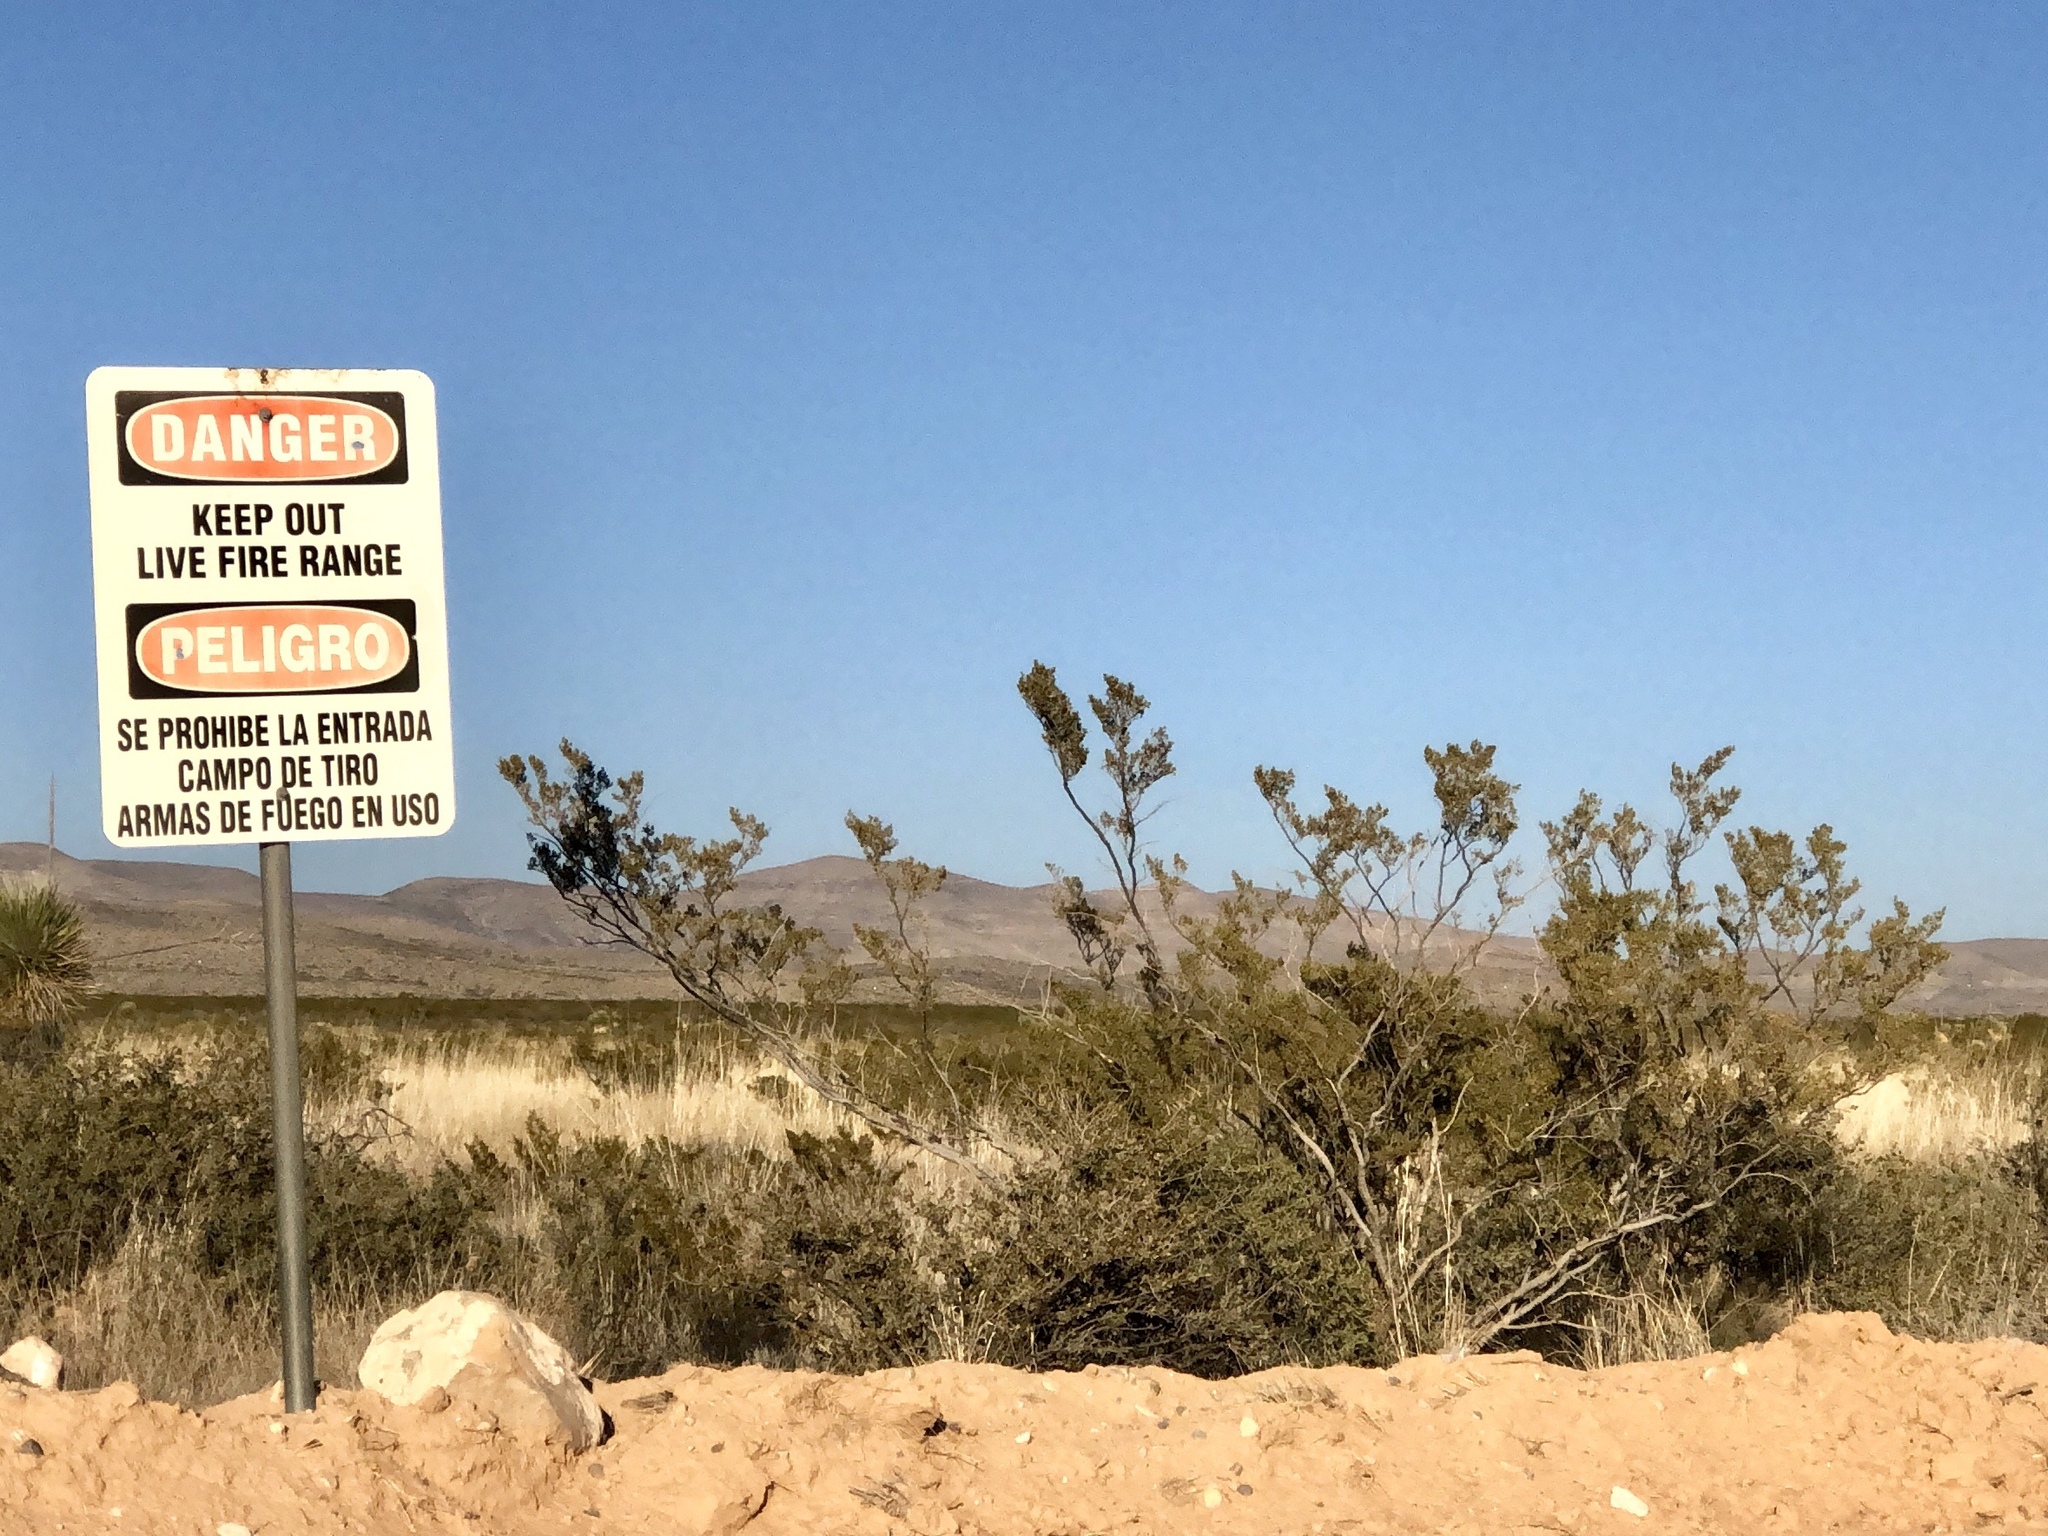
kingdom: Plantae
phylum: Tracheophyta
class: Magnoliopsida
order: Zygophyllales
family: Zygophyllaceae
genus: Larrea
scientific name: Larrea tridentata
